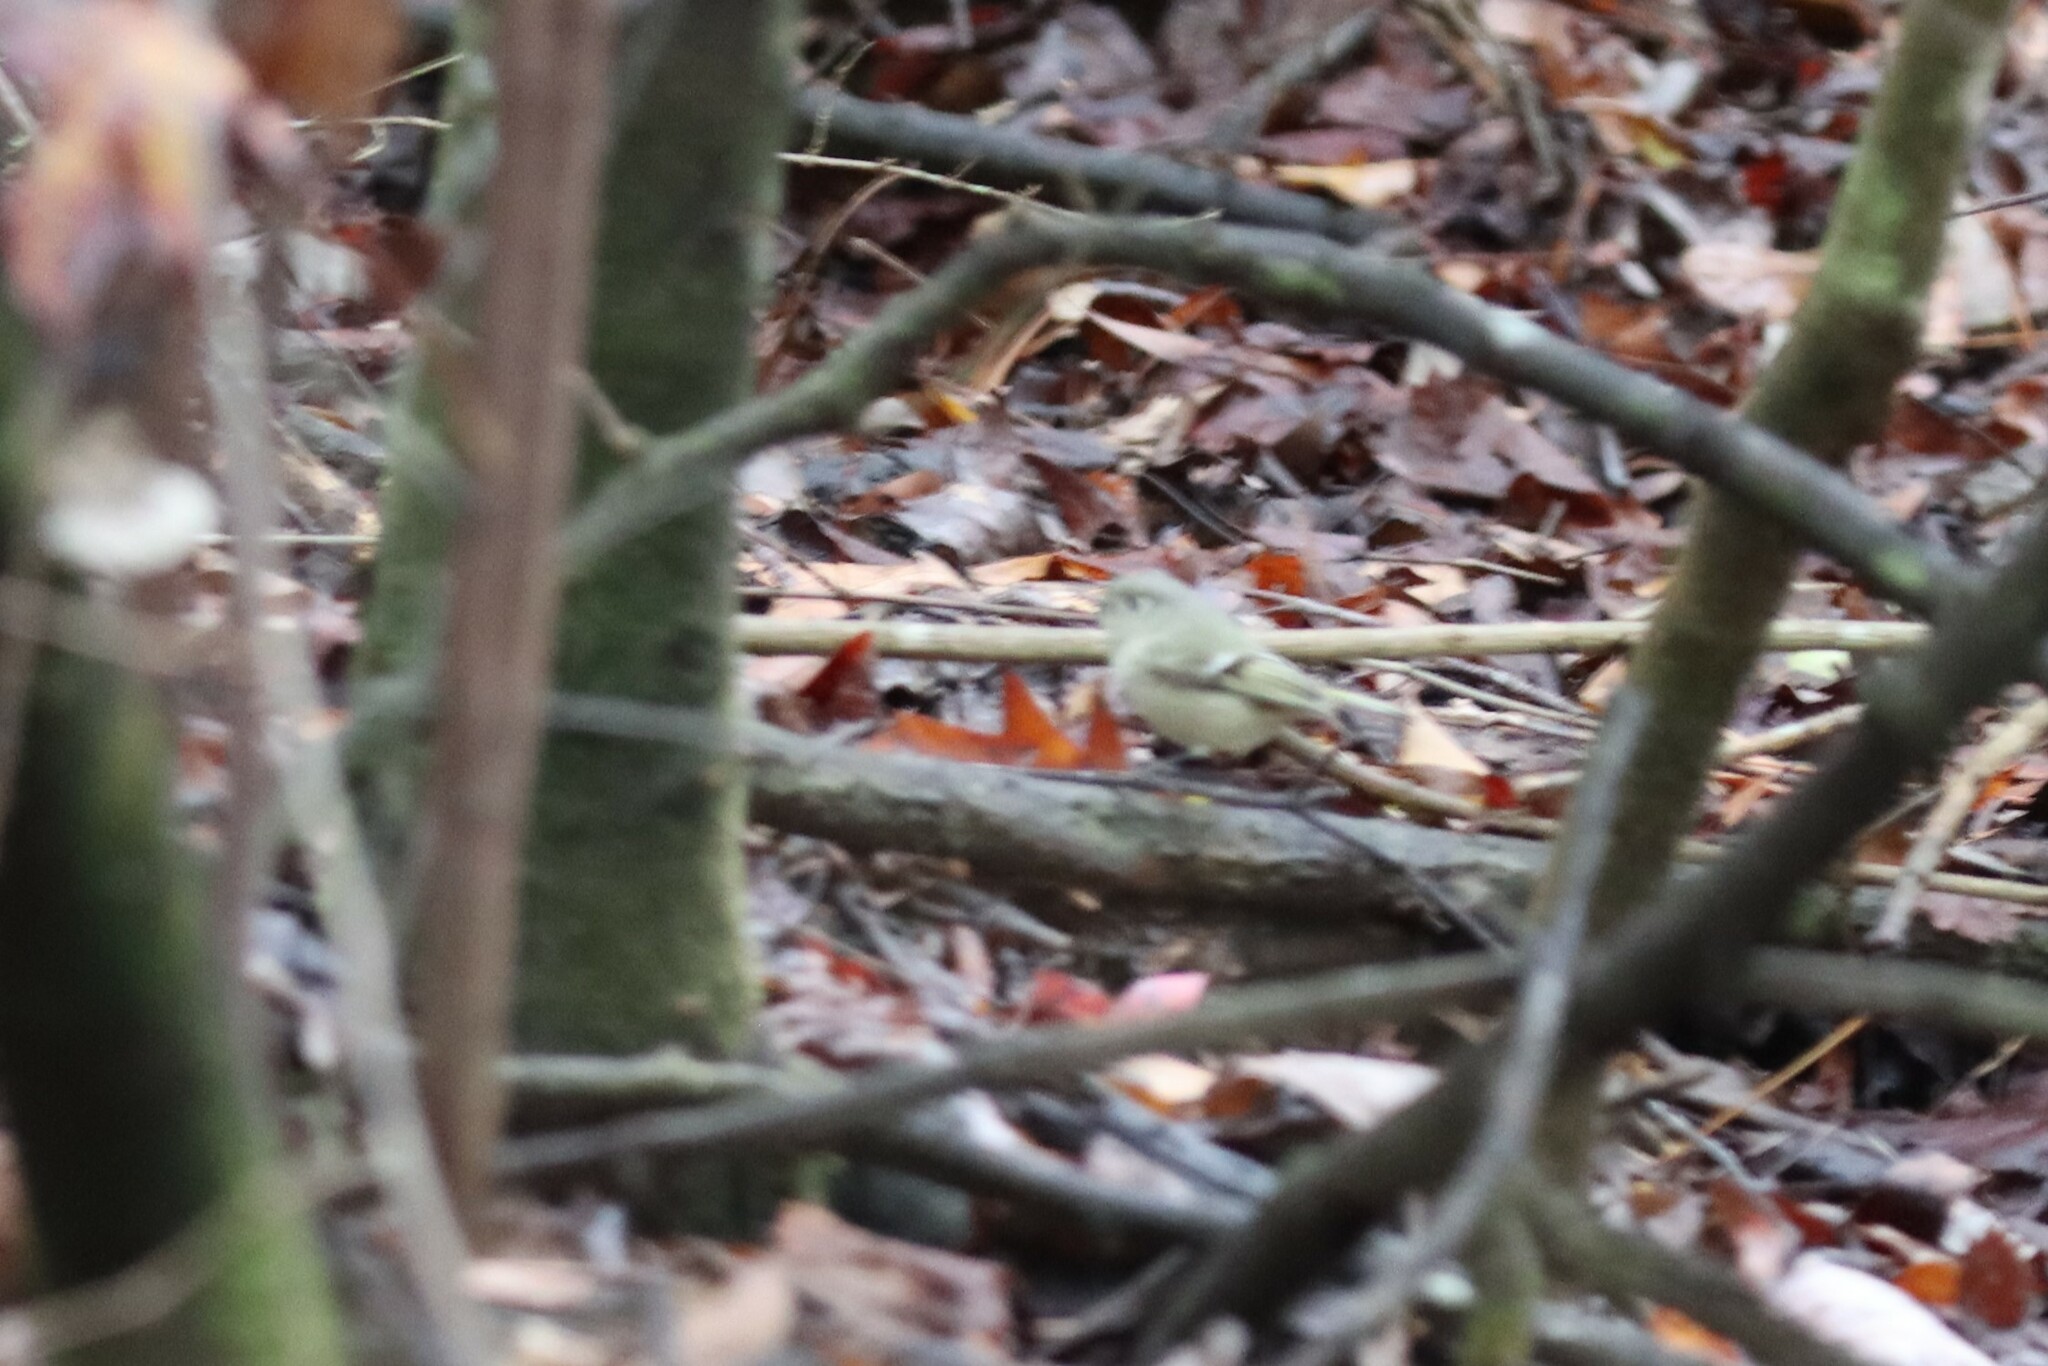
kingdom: Animalia
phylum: Chordata
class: Aves
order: Passeriformes
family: Regulidae
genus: Regulus
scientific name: Regulus calendula
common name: Ruby-crowned kinglet
